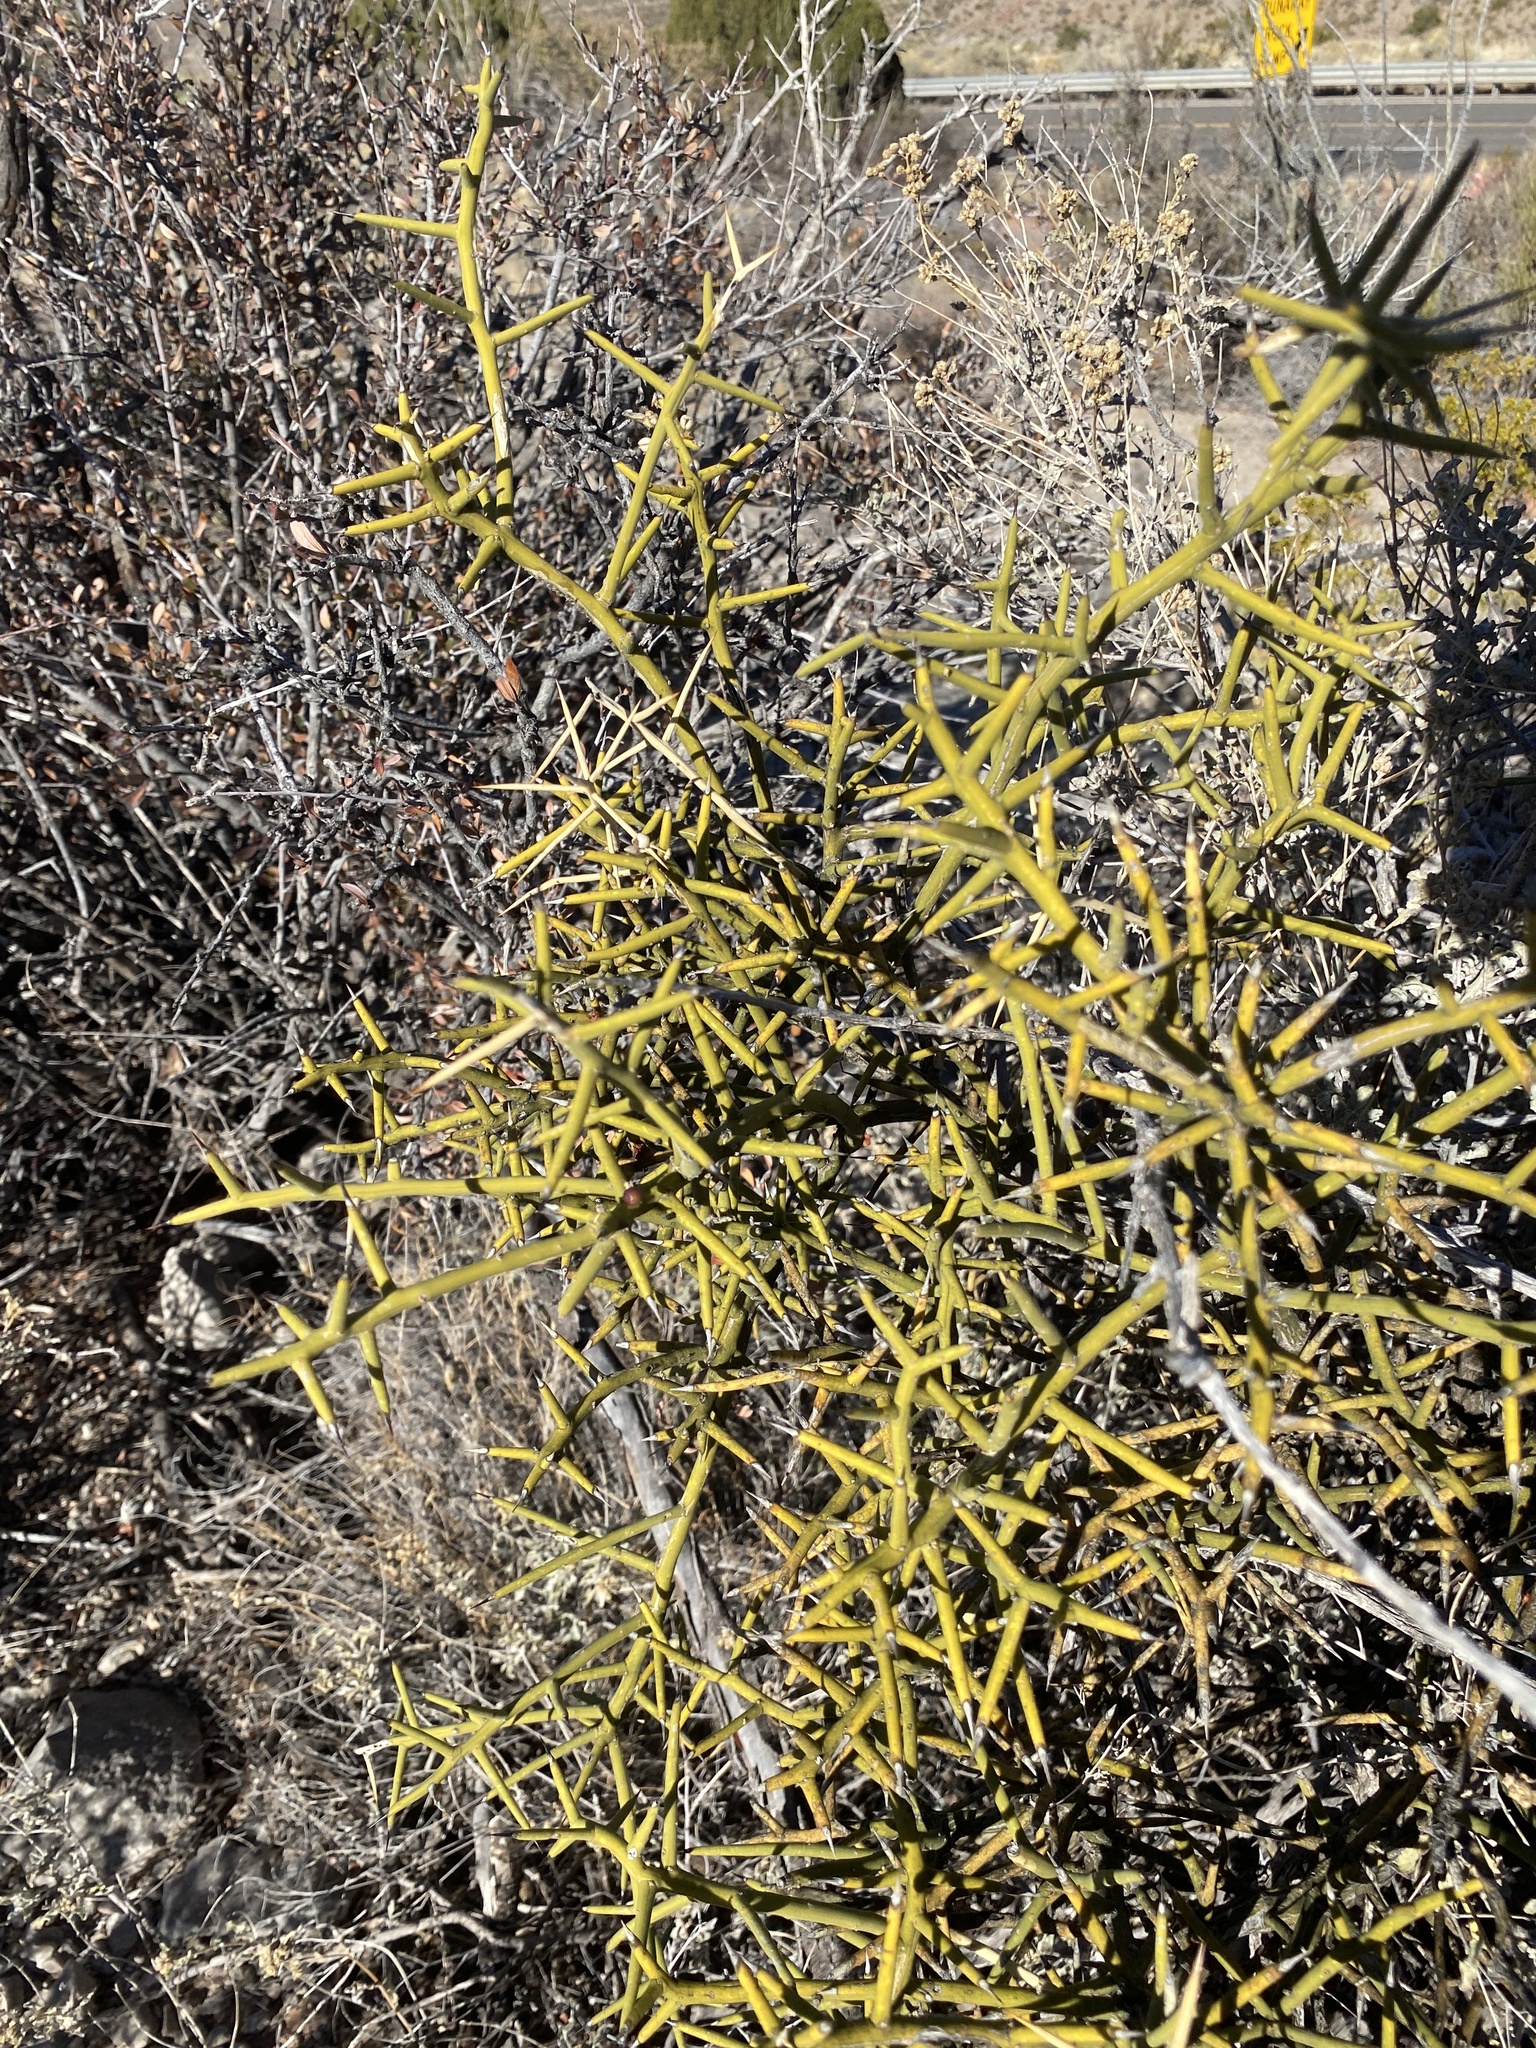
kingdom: Plantae
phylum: Tracheophyta
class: Magnoliopsida
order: Brassicales
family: Koeberliniaceae
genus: Koeberlinia
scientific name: Koeberlinia spinosa
